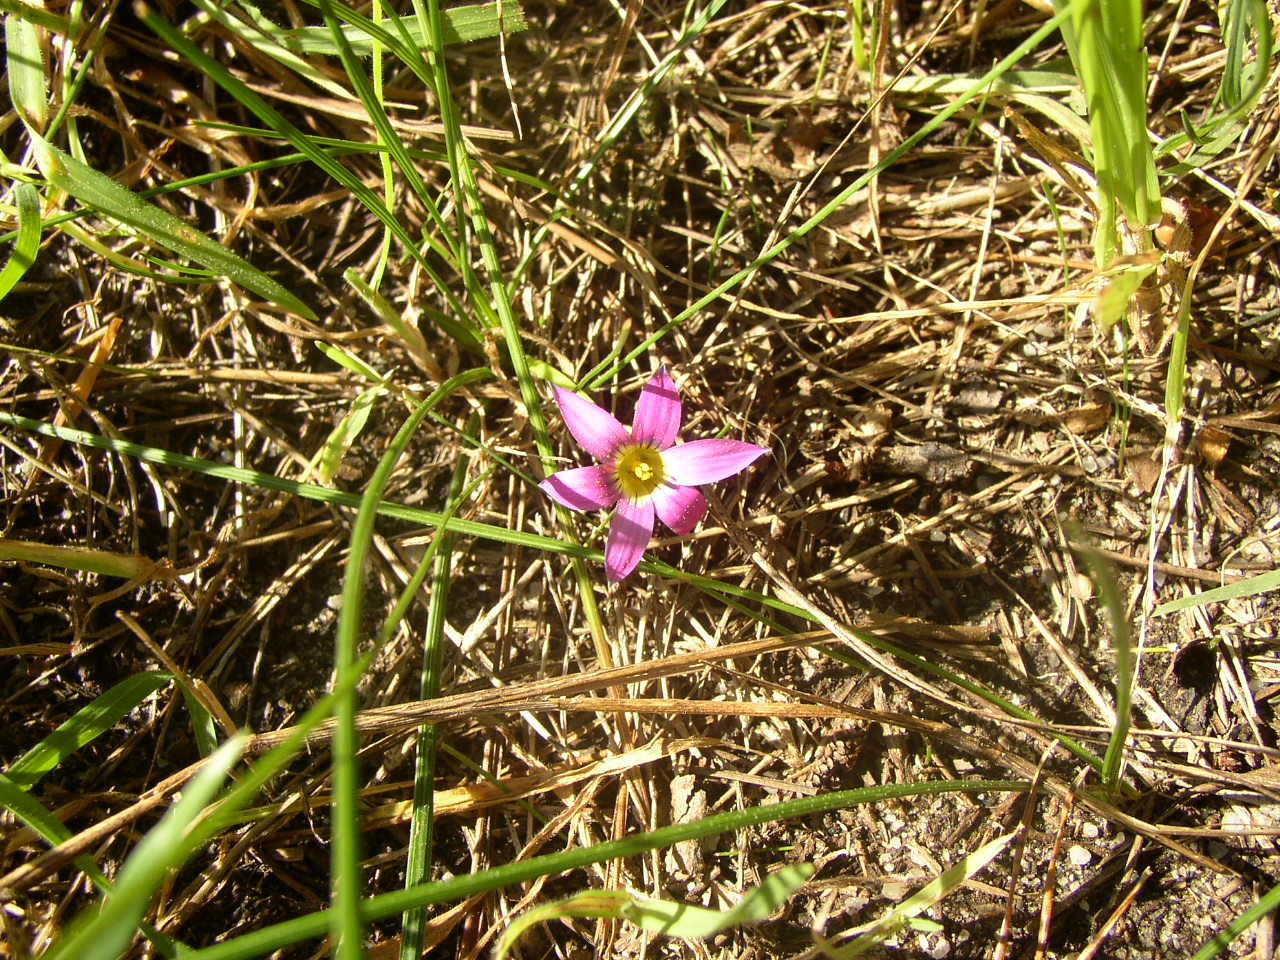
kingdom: Plantae
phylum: Tracheophyta
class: Liliopsida
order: Asparagales
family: Iridaceae
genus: Romulea
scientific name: Romulea rosea
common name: Oniongrass
